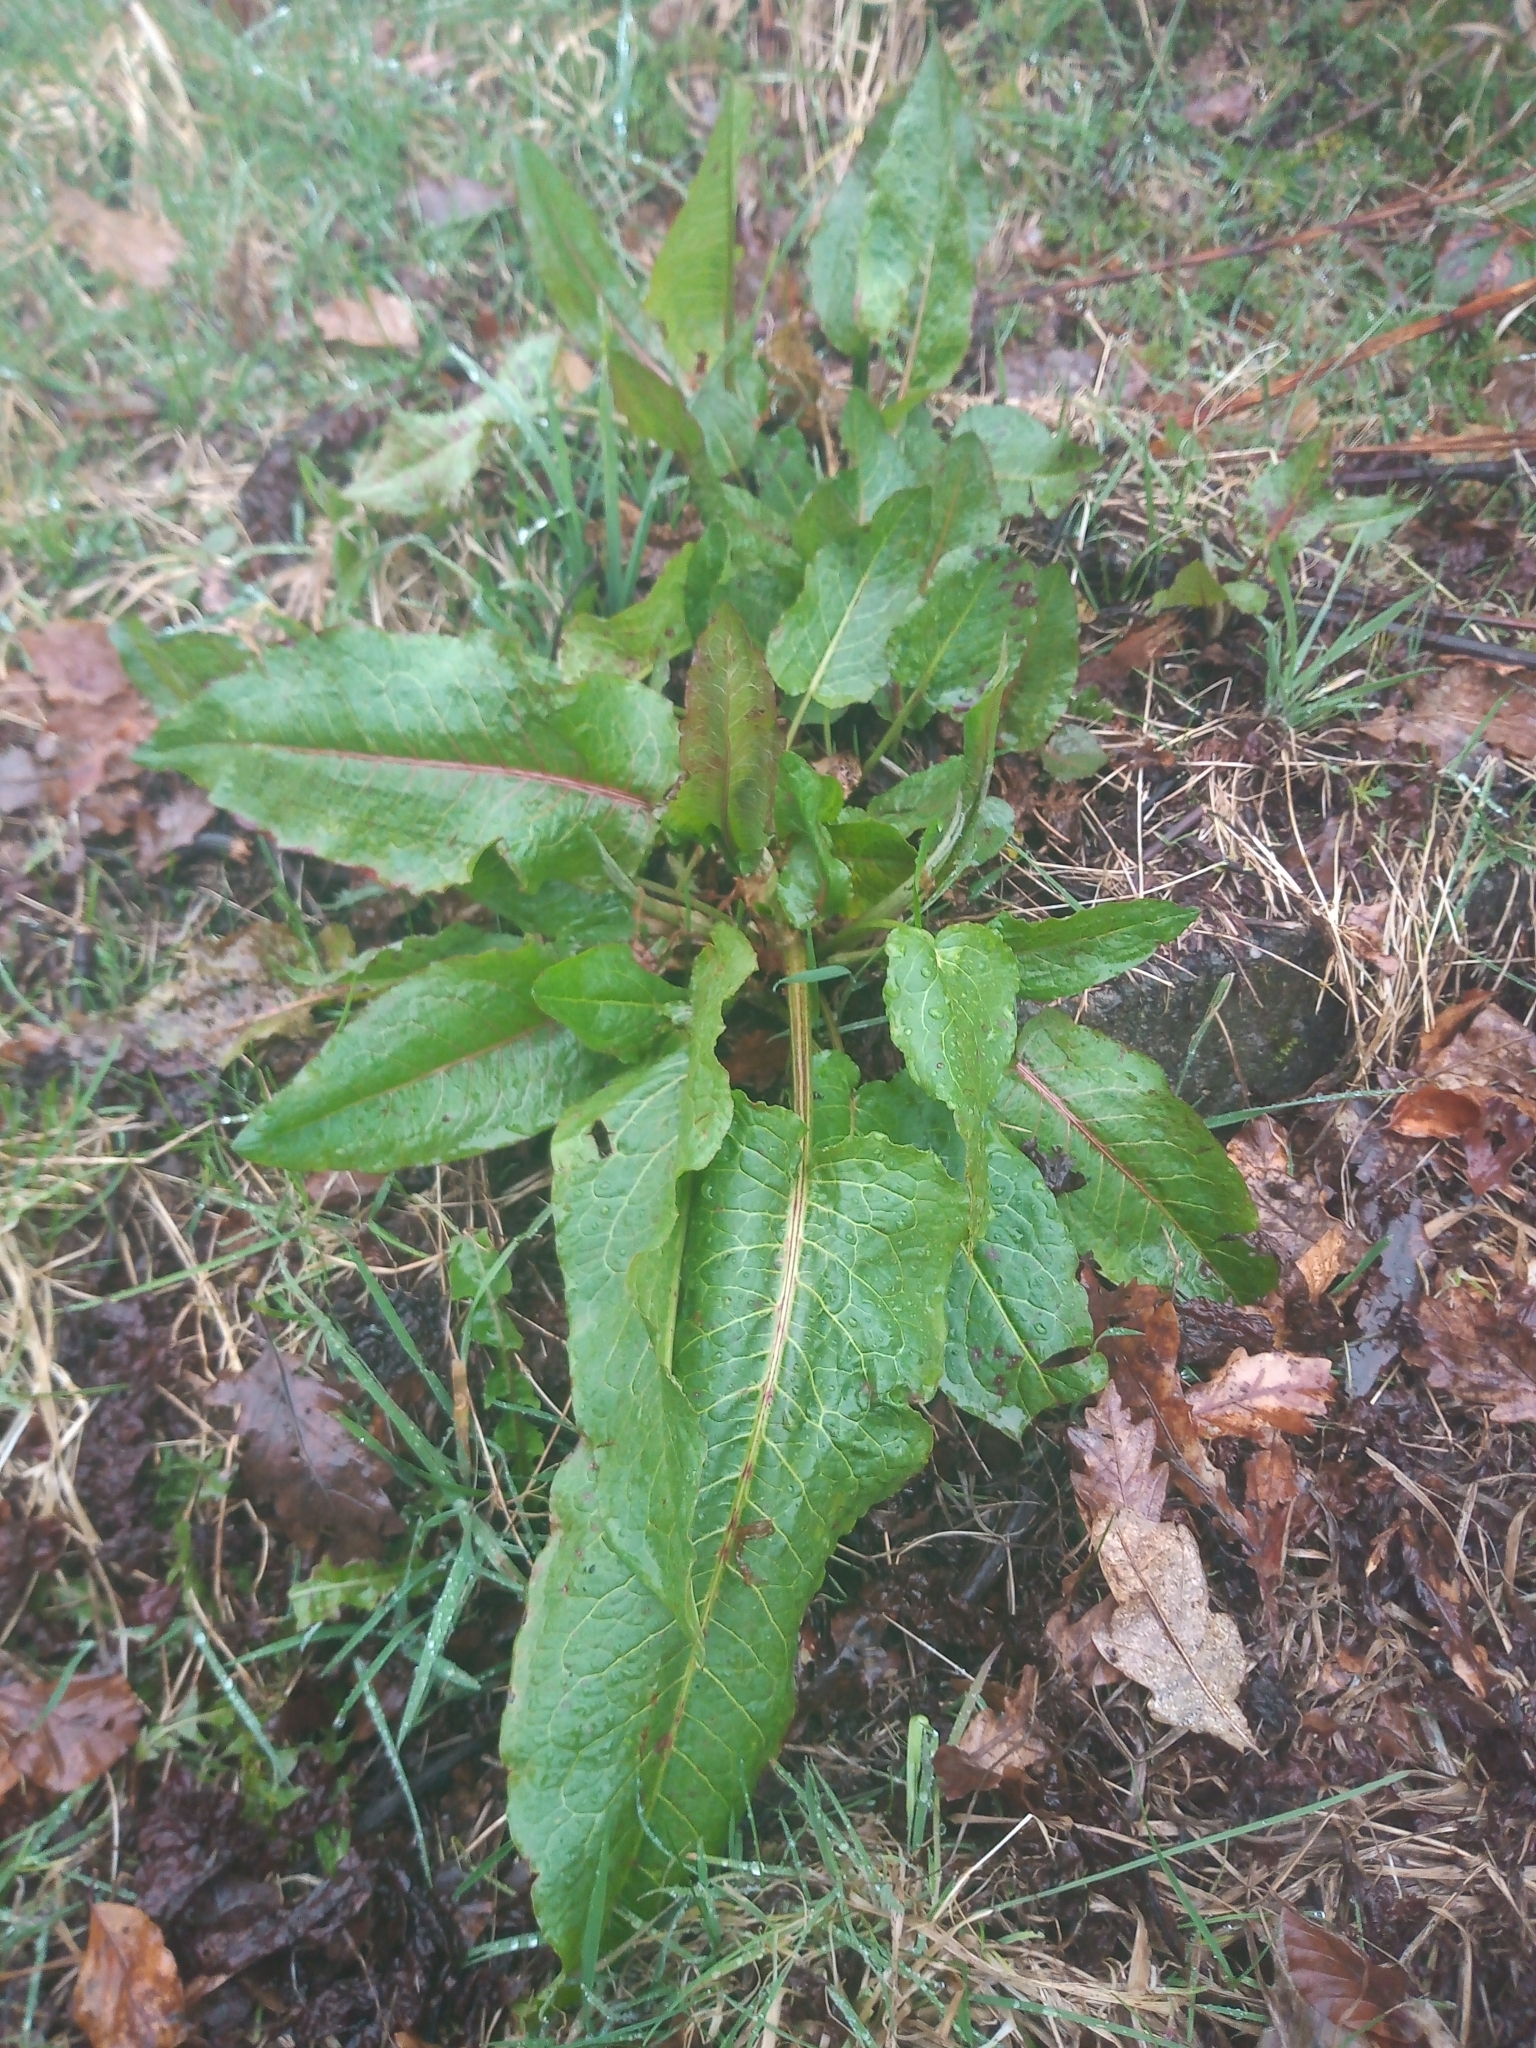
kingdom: Plantae
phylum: Tracheophyta
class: Magnoliopsida
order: Caryophyllales
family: Polygonaceae
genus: Rumex
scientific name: Rumex obtusifolius
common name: Bitter dock
